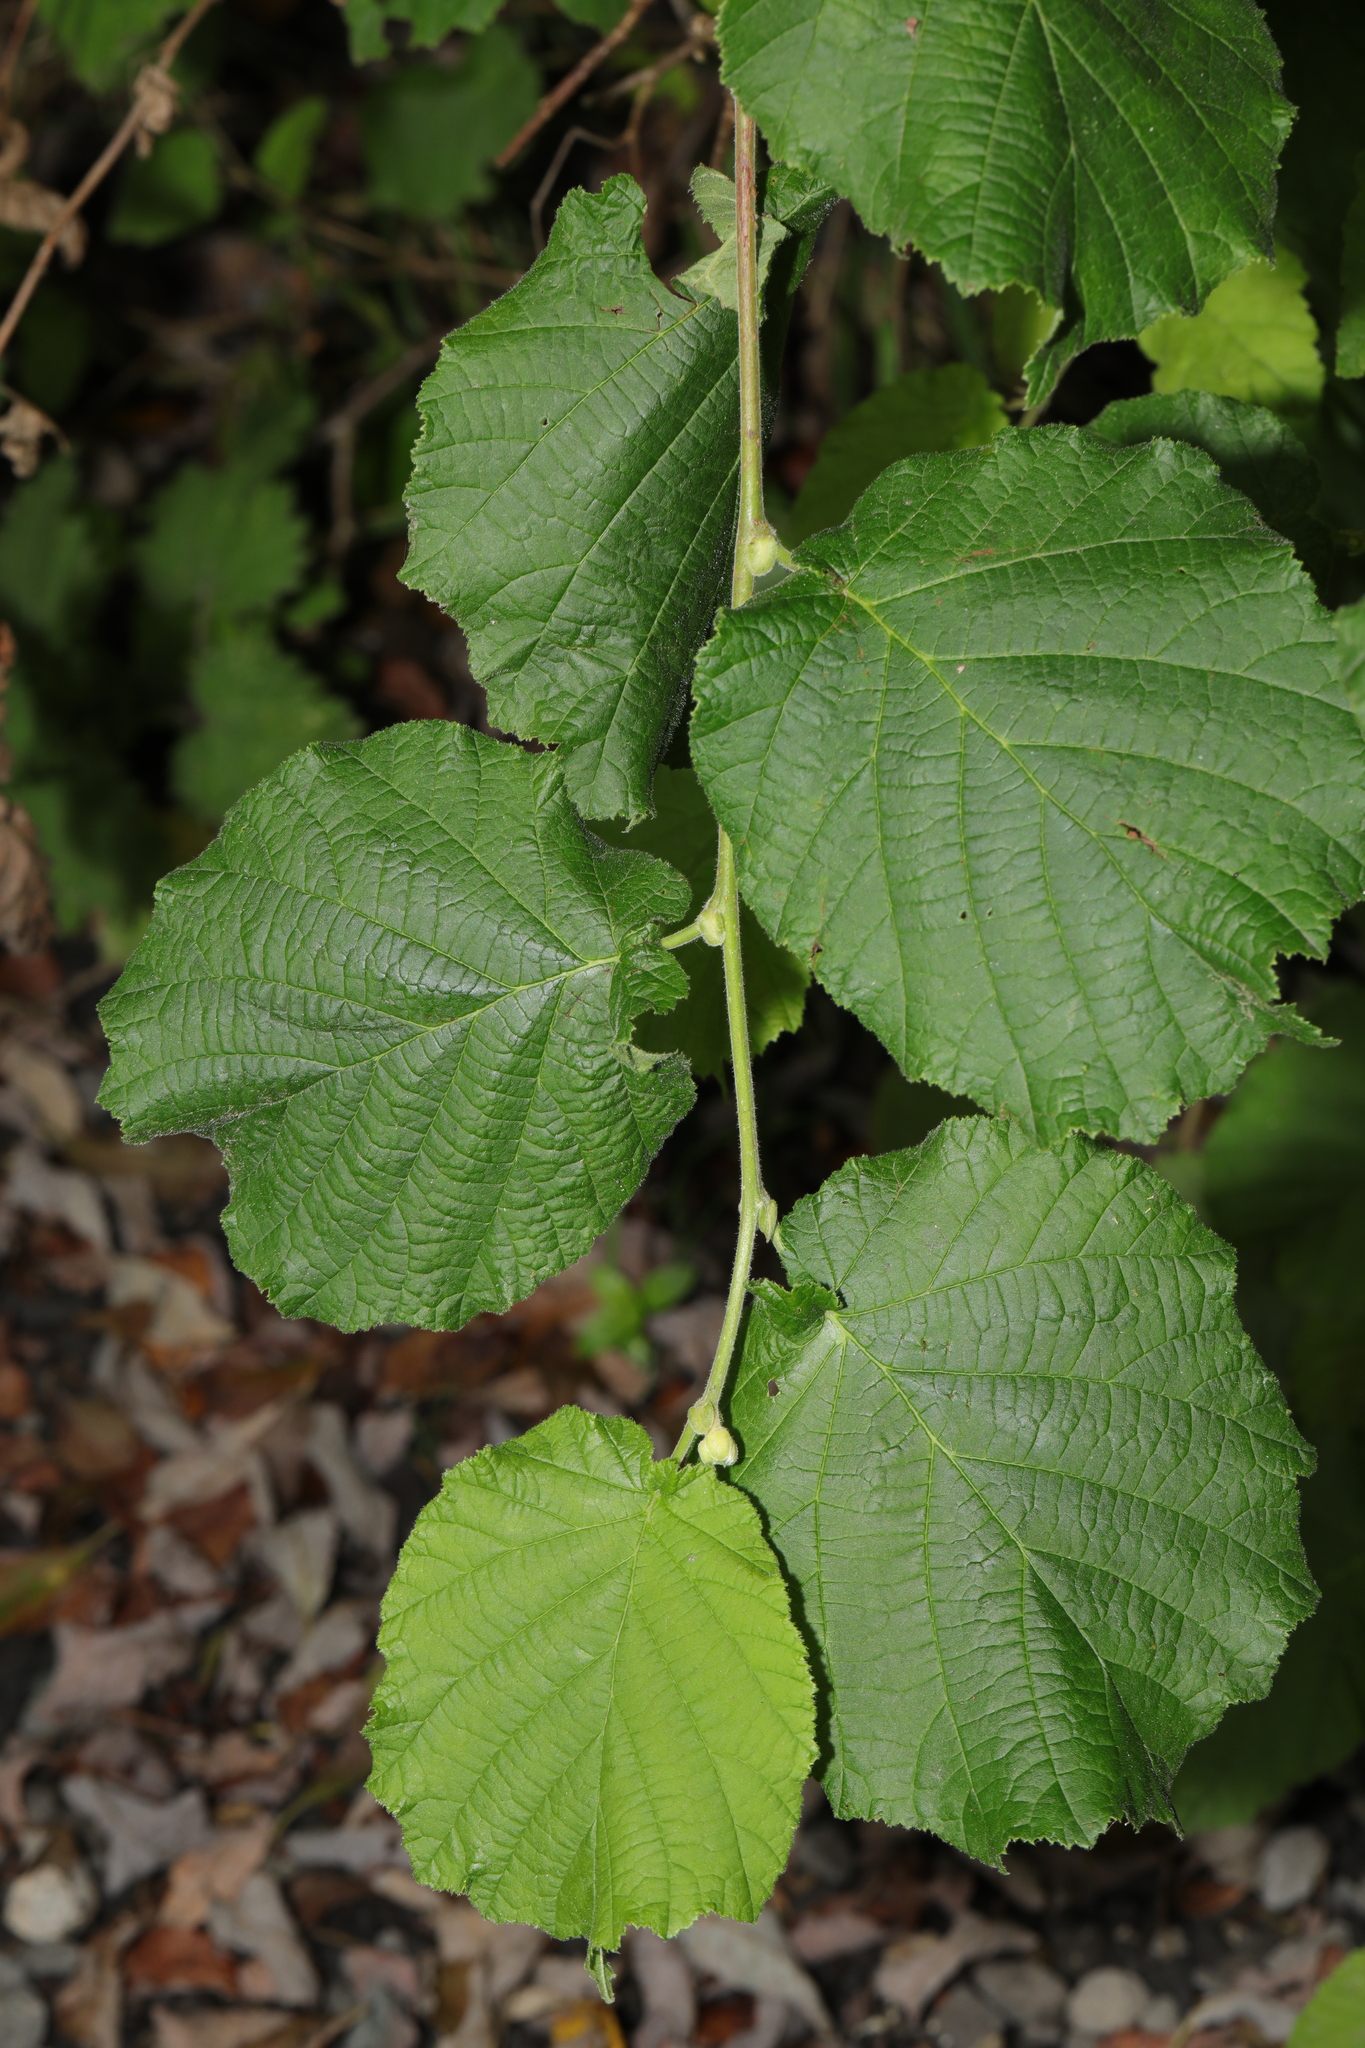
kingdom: Plantae
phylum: Tracheophyta
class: Magnoliopsida
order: Fagales
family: Betulaceae
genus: Corylus
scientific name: Corylus avellana
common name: European hazel
